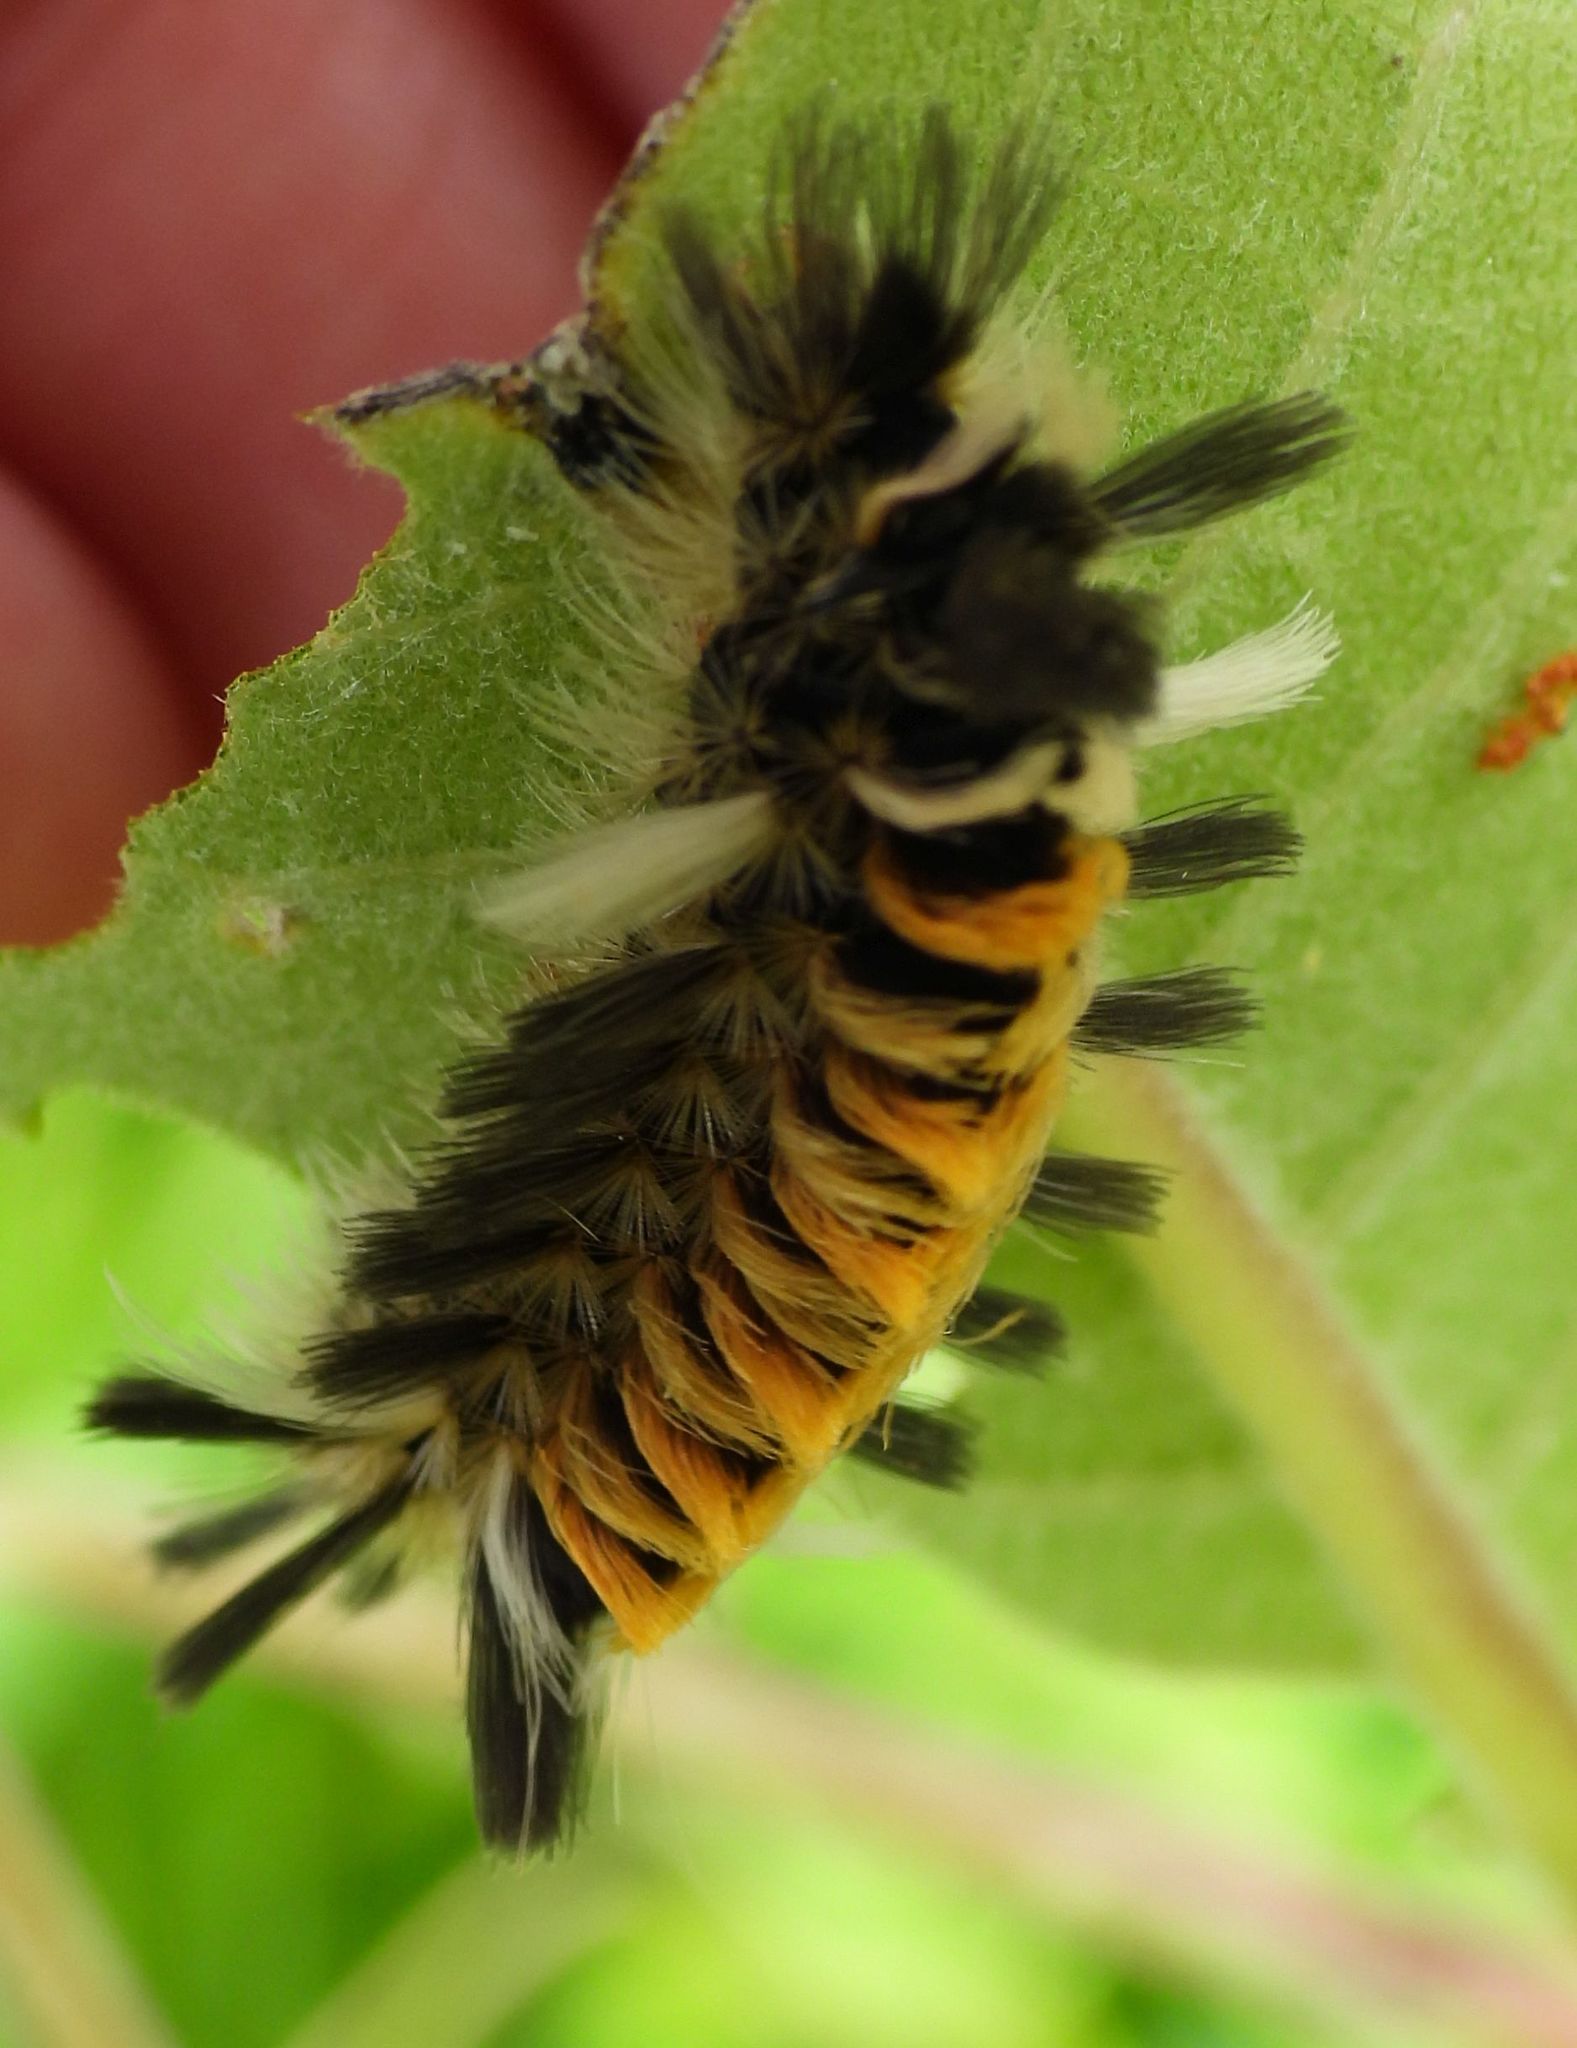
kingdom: Animalia
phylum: Arthropoda
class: Insecta
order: Lepidoptera
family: Erebidae
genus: Euchaetes
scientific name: Euchaetes egle
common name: Milkweed tussock moth
